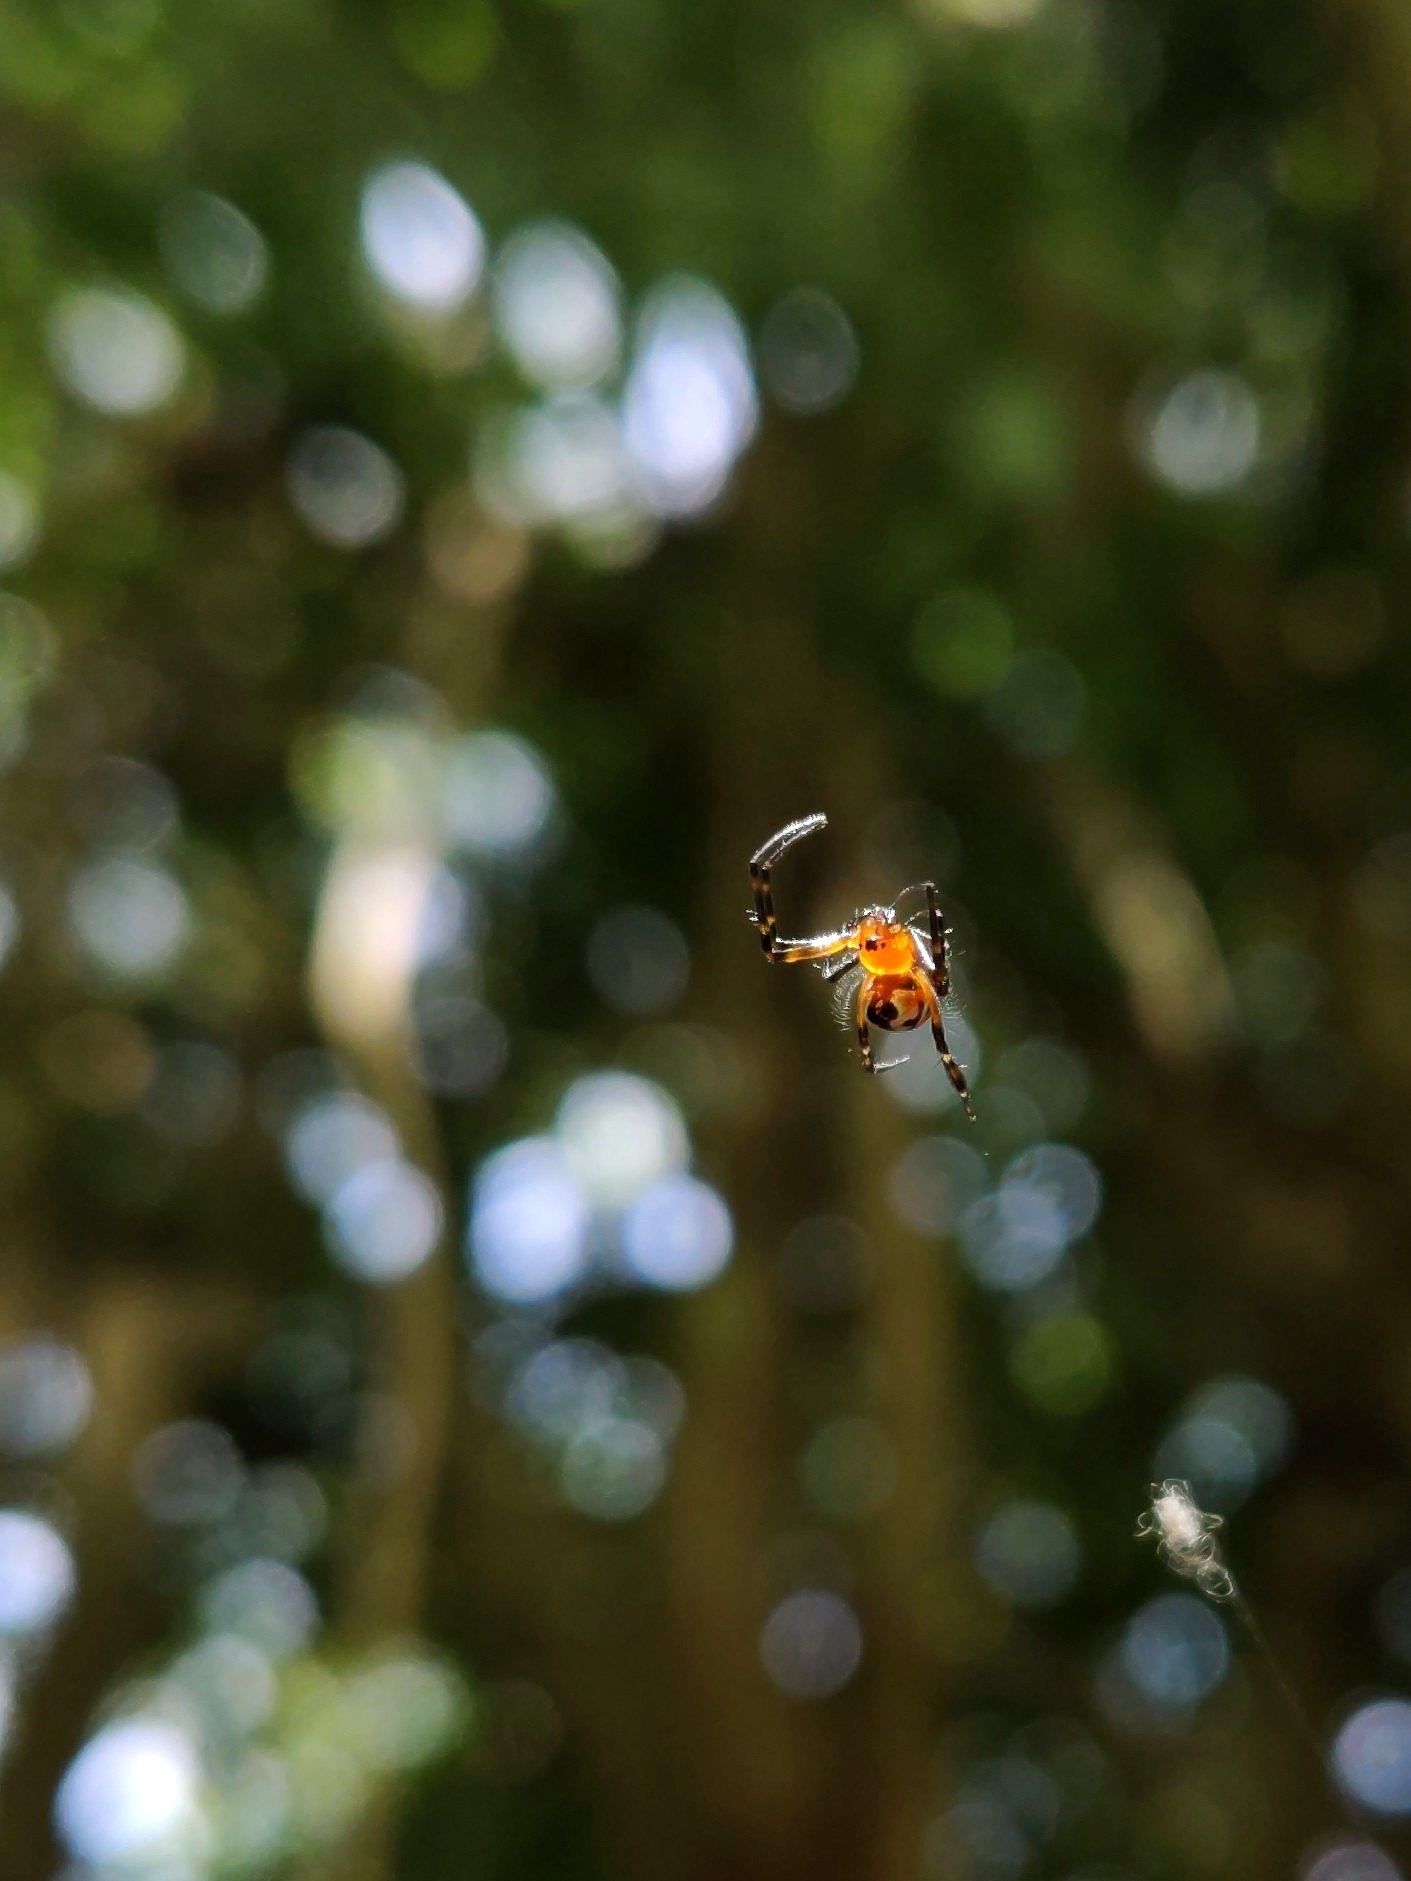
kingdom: Animalia
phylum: Arthropoda
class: Arachnida
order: Araneae
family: Tetragnathidae
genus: Leucauge
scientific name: Leucauge fastigata
